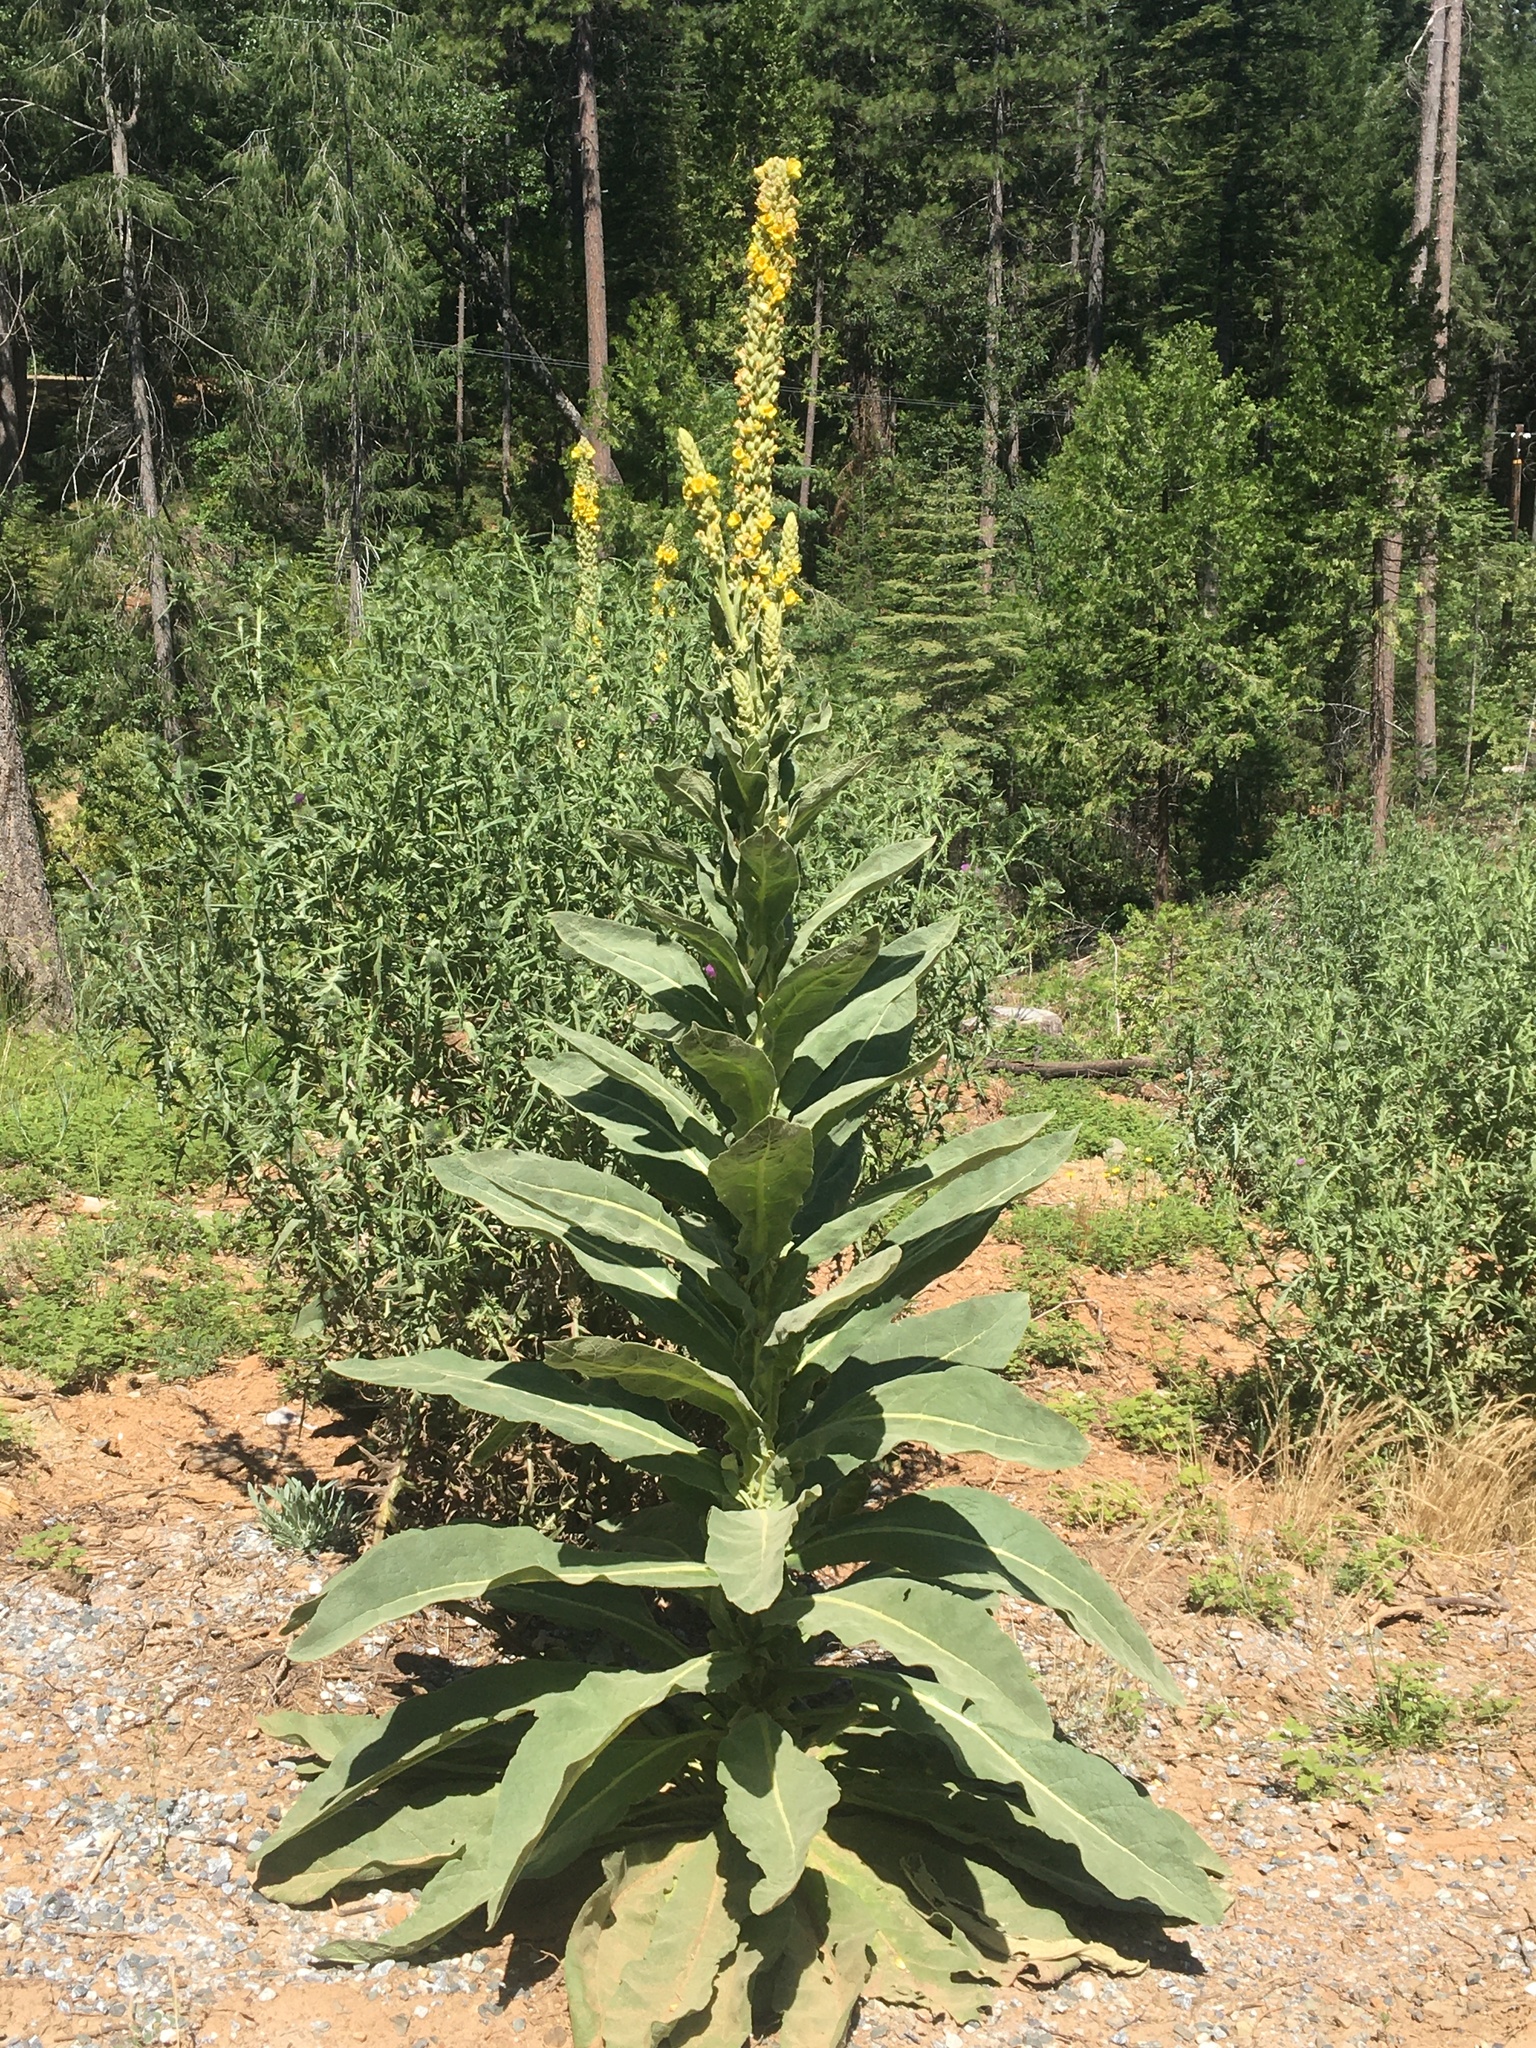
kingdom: Plantae
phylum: Tracheophyta
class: Magnoliopsida
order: Lamiales
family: Scrophulariaceae
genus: Verbascum
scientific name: Verbascum thapsus
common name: Common mullein
